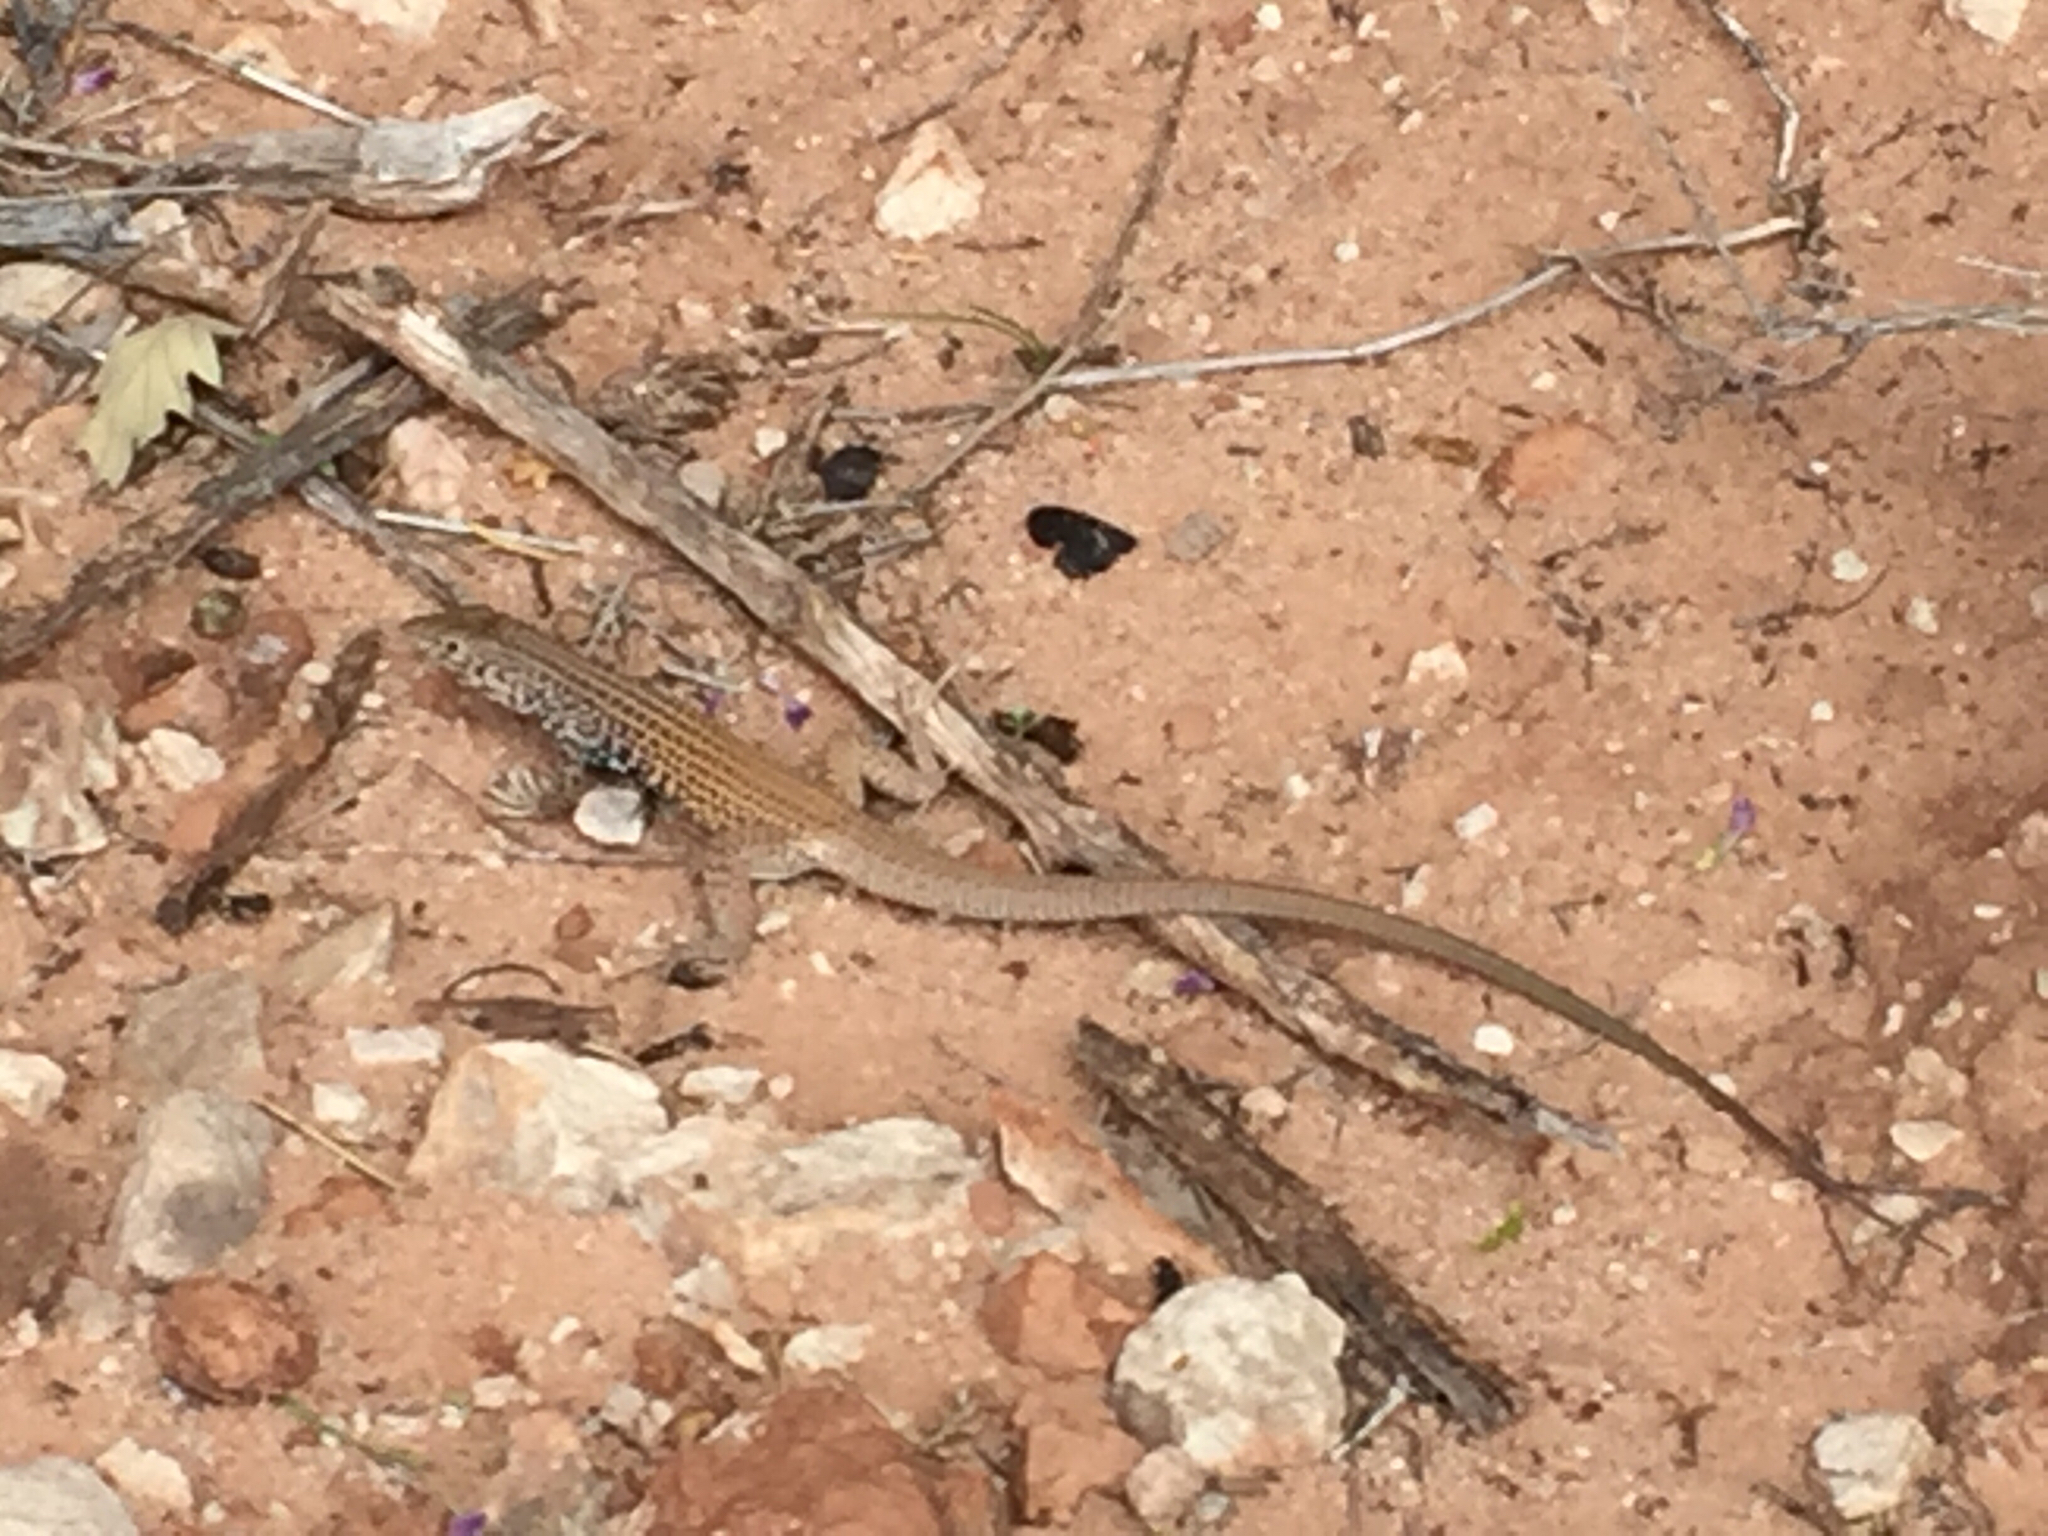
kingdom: Animalia
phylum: Chordata
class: Squamata
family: Teiidae
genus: Aspidoscelis
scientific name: Aspidoscelis tigris
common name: Tiger whiptail
